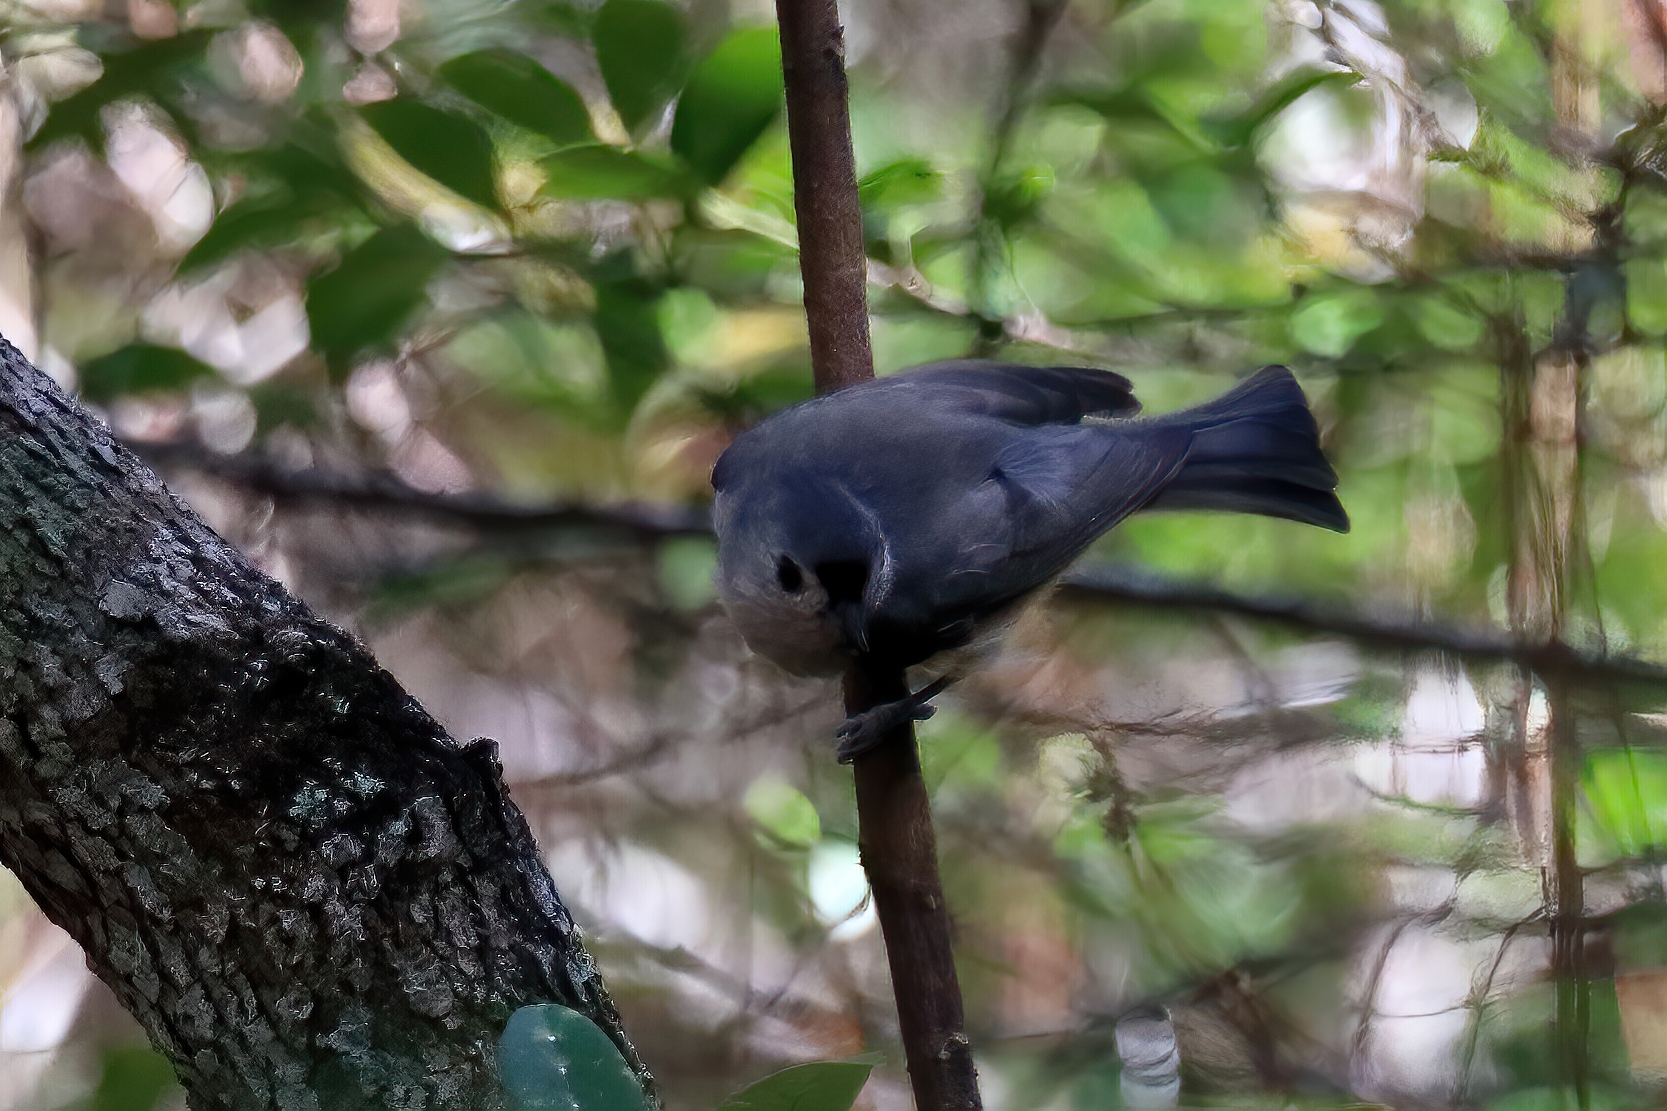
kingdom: Animalia
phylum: Chordata
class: Aves
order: Passeriformes
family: Paridae
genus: Baeolophus
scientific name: Baeolophus bicolor
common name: Tufted titmouse
